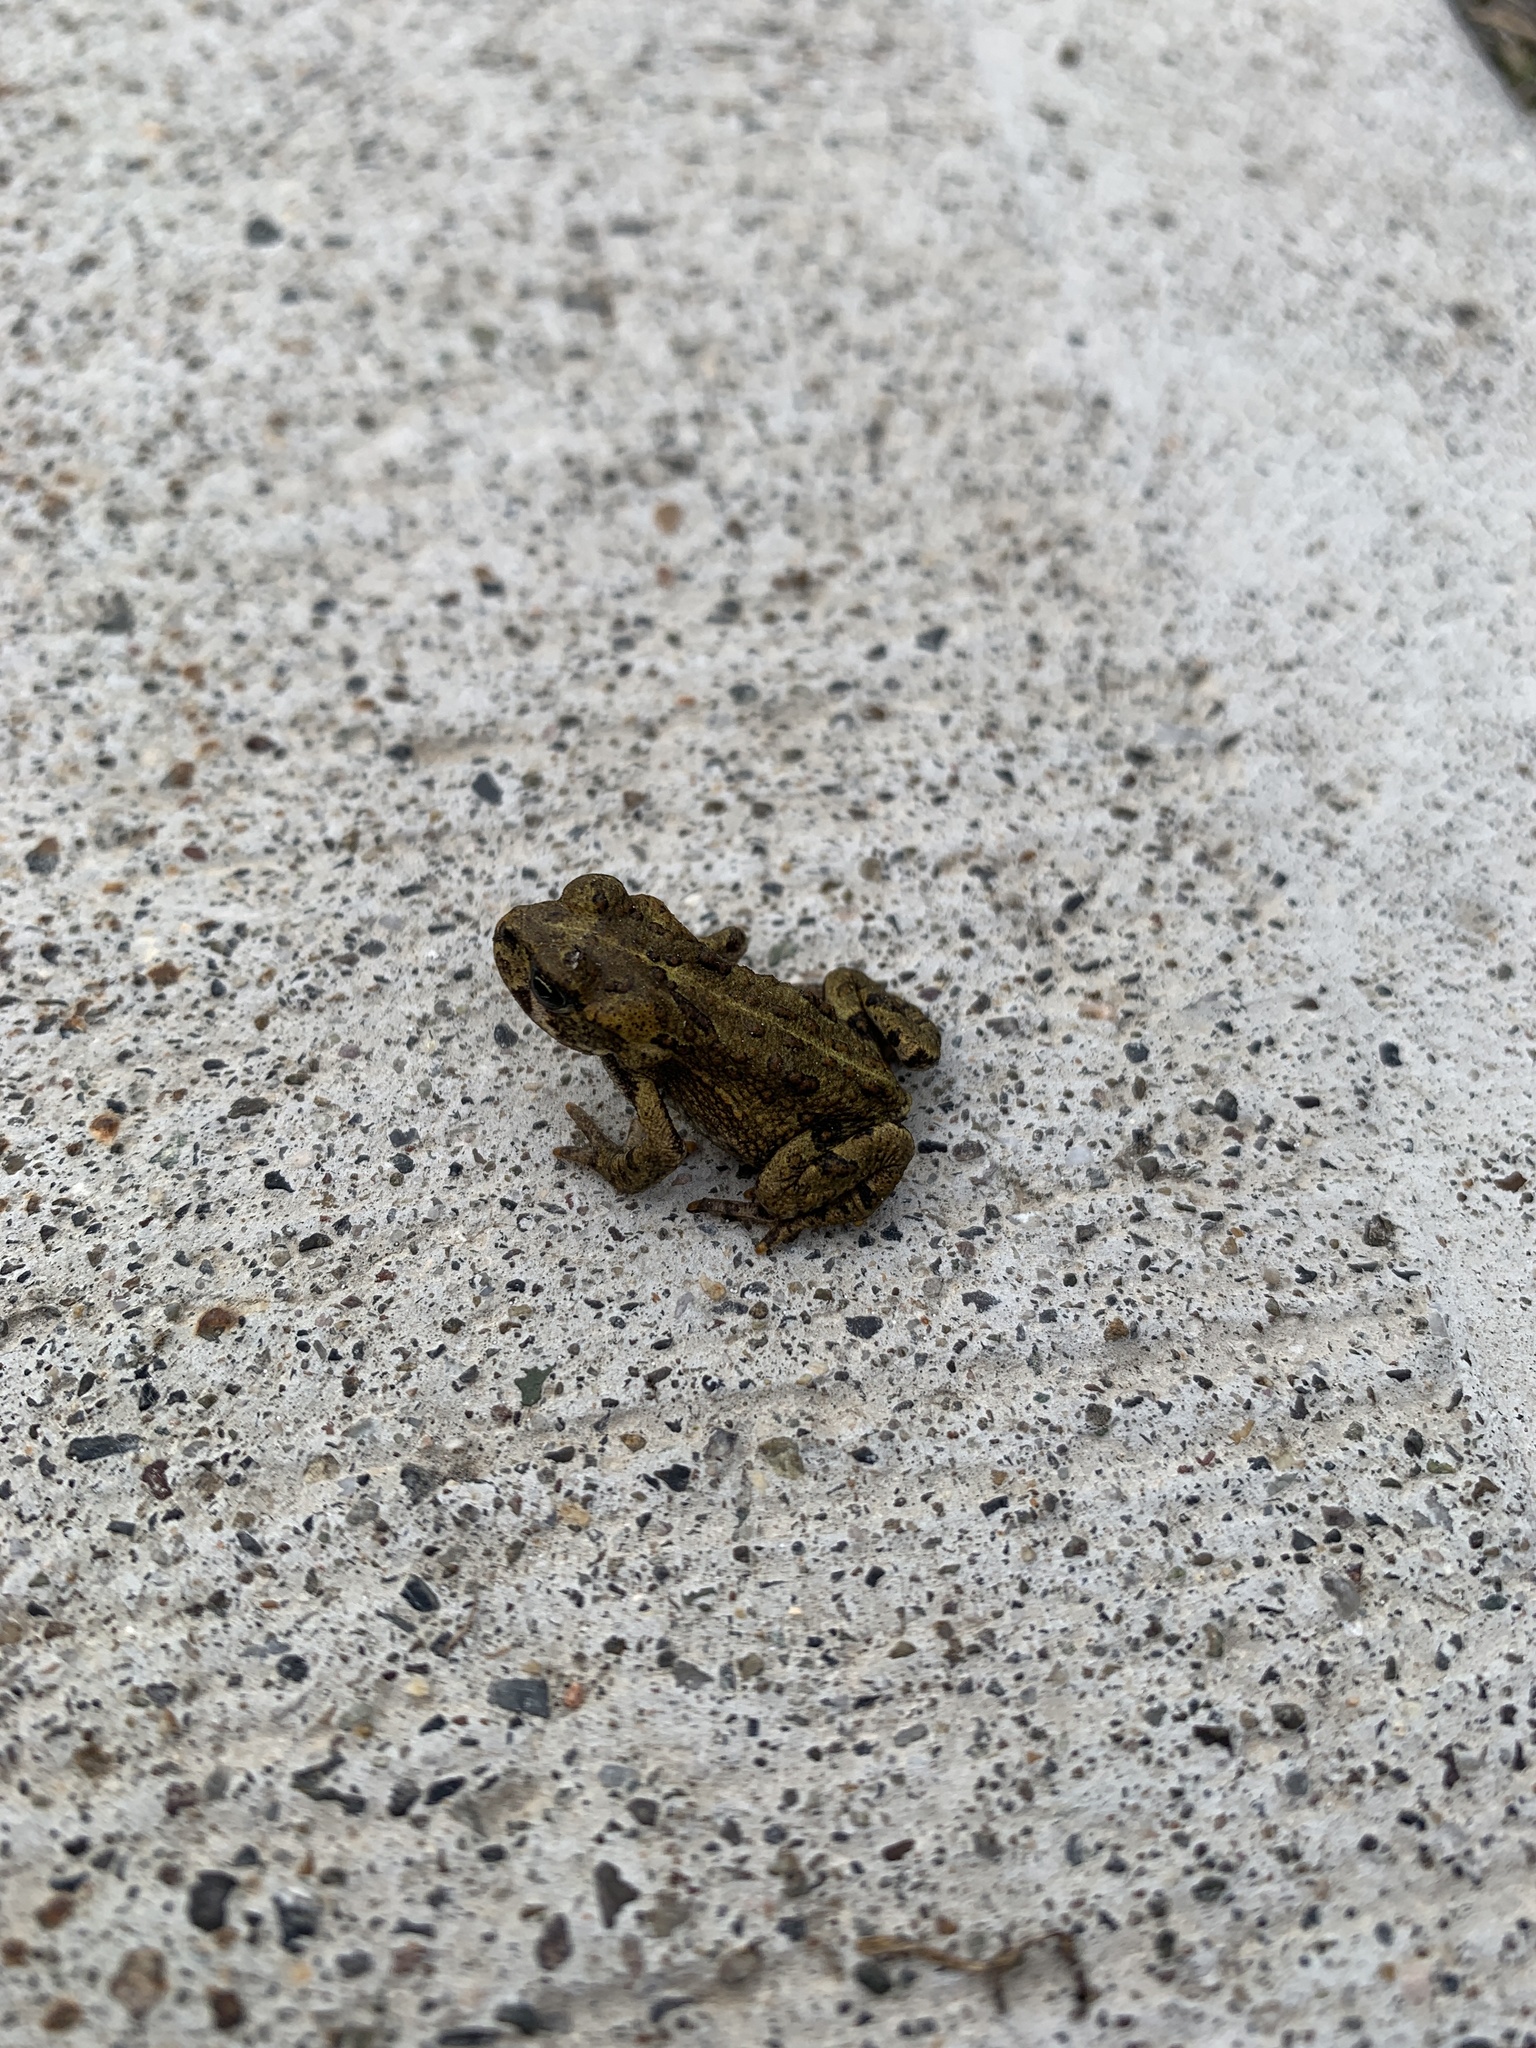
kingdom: Animalia
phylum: Chordata
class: Amphibia
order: Anura
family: Bufonidae
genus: Anaxyrus
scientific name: Anaxyrus boreas
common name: Western toad
